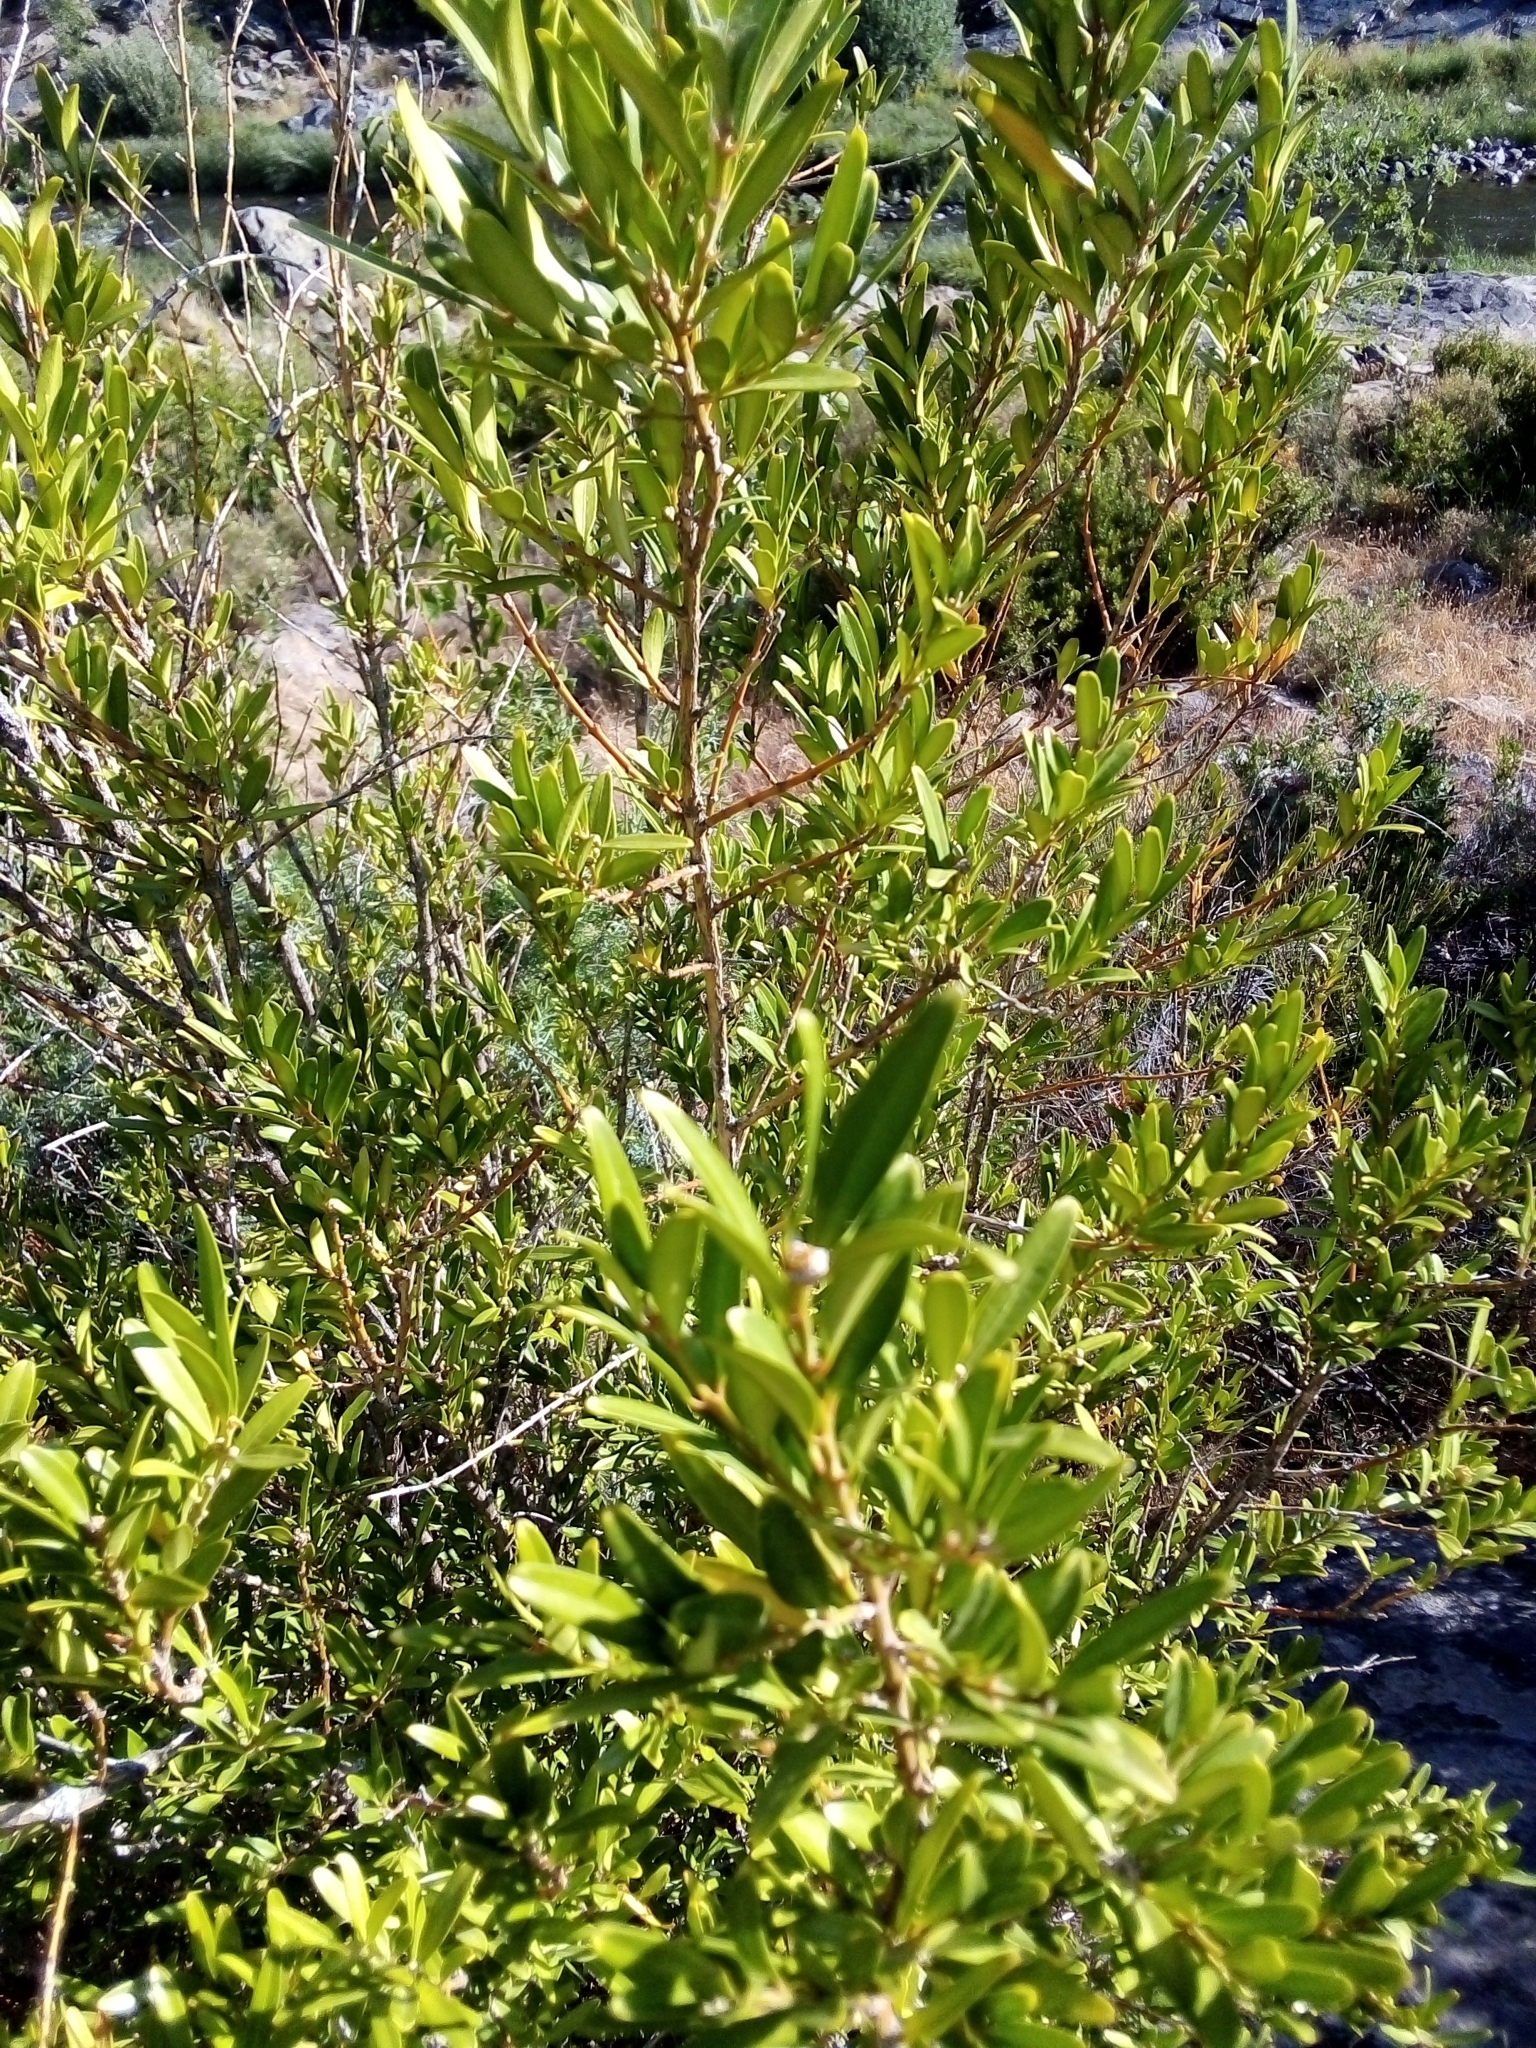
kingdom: Plantae
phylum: Tracheophyta
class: Magnoliopsida
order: Buxales
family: Buxaceae
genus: Buxus
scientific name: Buxus sempervirens
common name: Box
